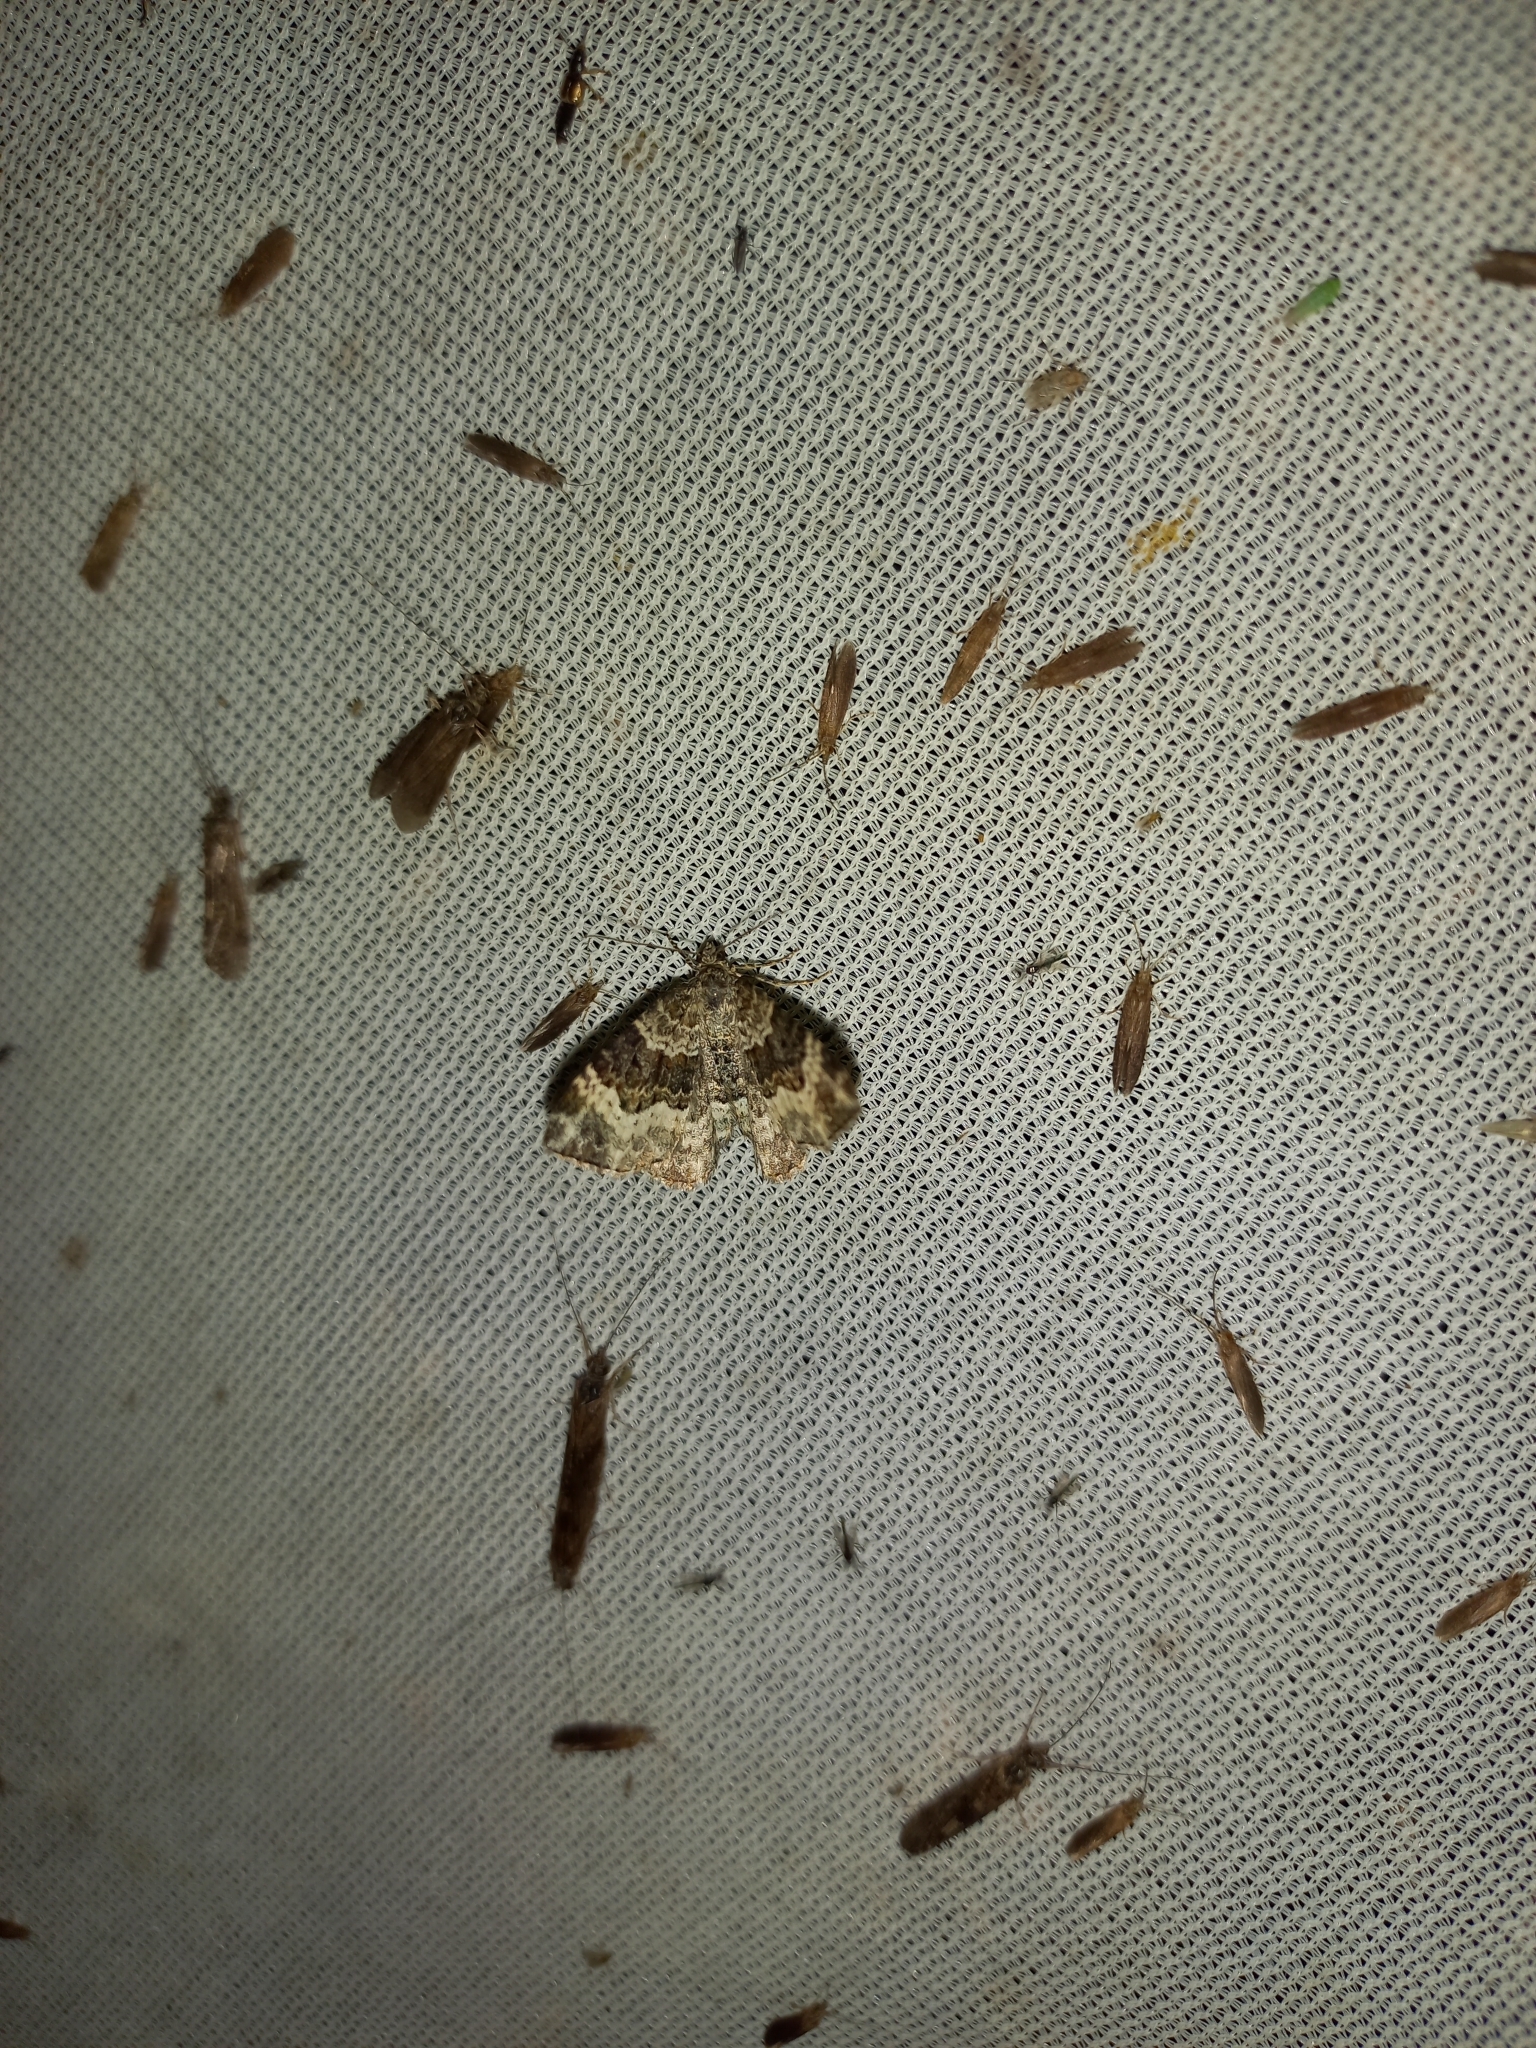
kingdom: Animalia
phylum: Arthropoda
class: Insecta
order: Lepidoptera
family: Geometridae
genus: Epirrhoe
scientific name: Epirrhoe alternata
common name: Common carpet
